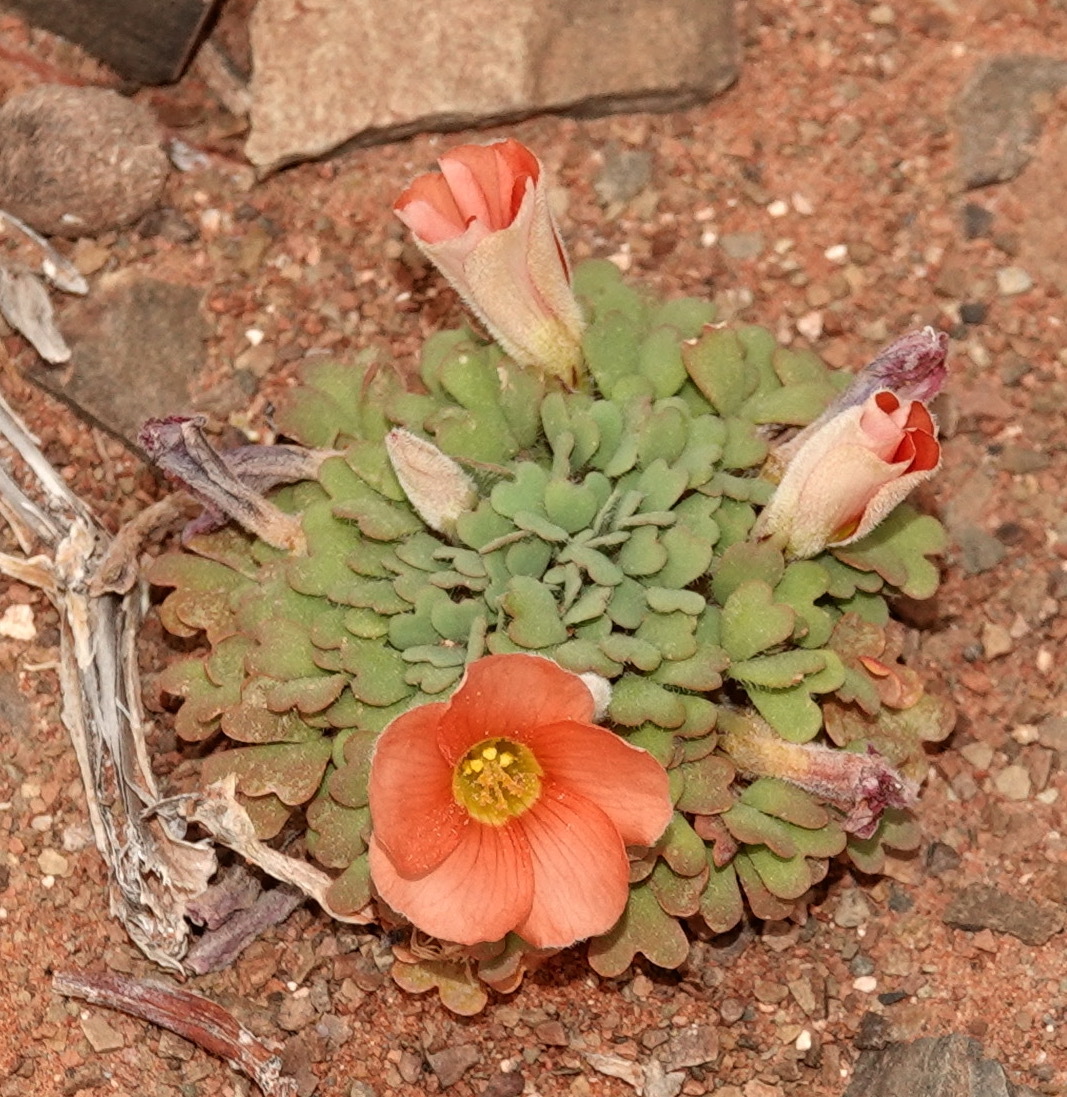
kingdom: Plantae
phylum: Tracheophyta
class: Magnoliopsida
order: Oxalidales
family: Oxalidaceae
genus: Oxalis
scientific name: Oxalis annae
